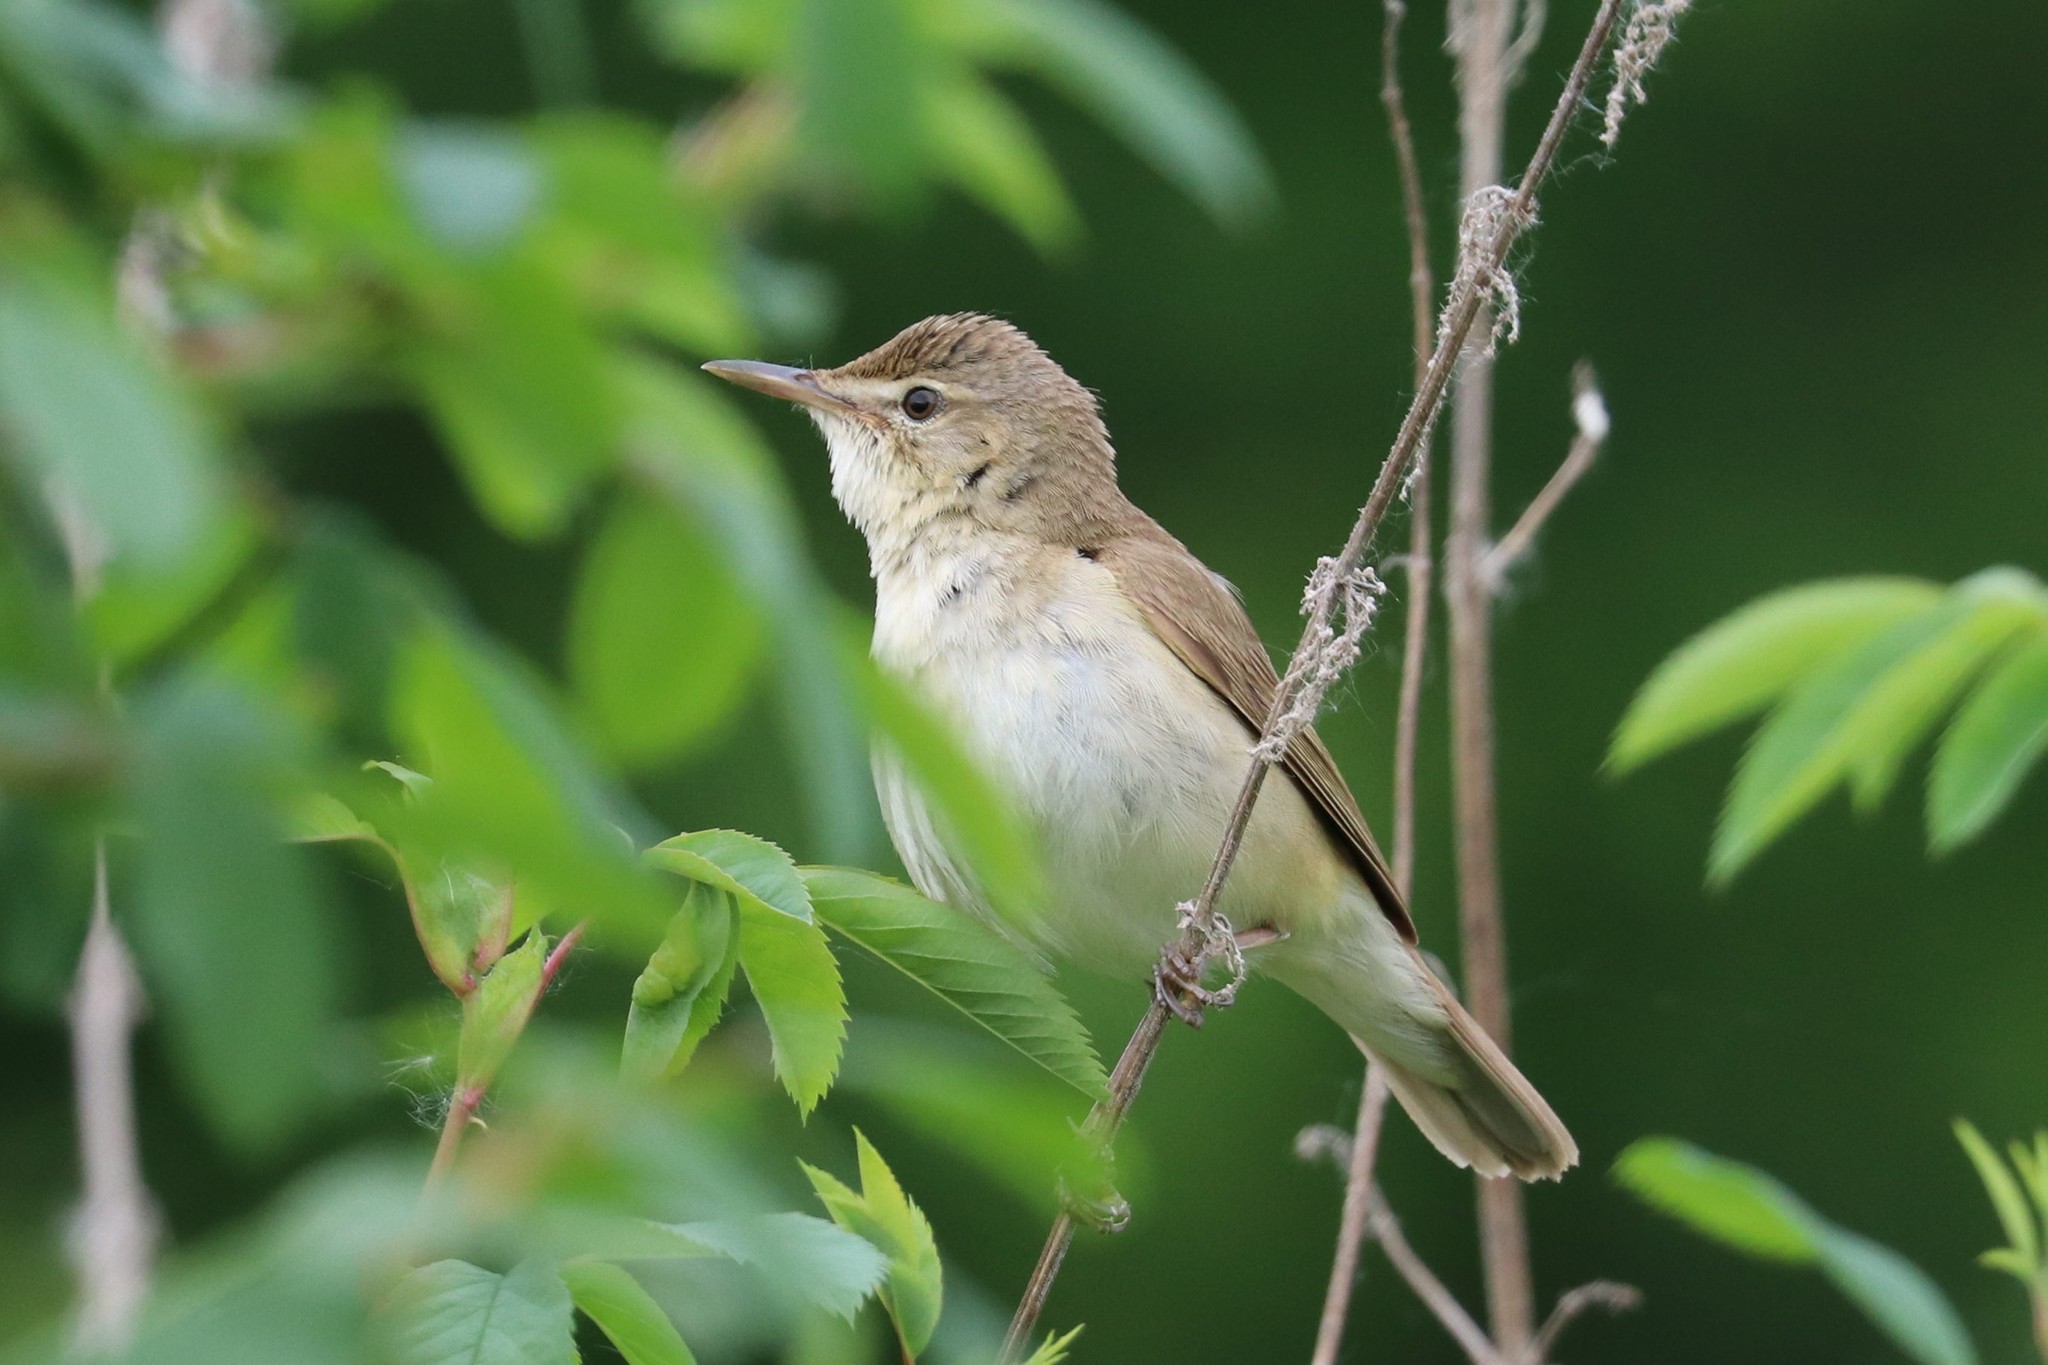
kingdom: Animalia
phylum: Chordata
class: Aves
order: Passeriformes
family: Acrocephalidae
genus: Acrocephalus
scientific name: Acrocephalus dumetorum
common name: Blyth's reed warbler
